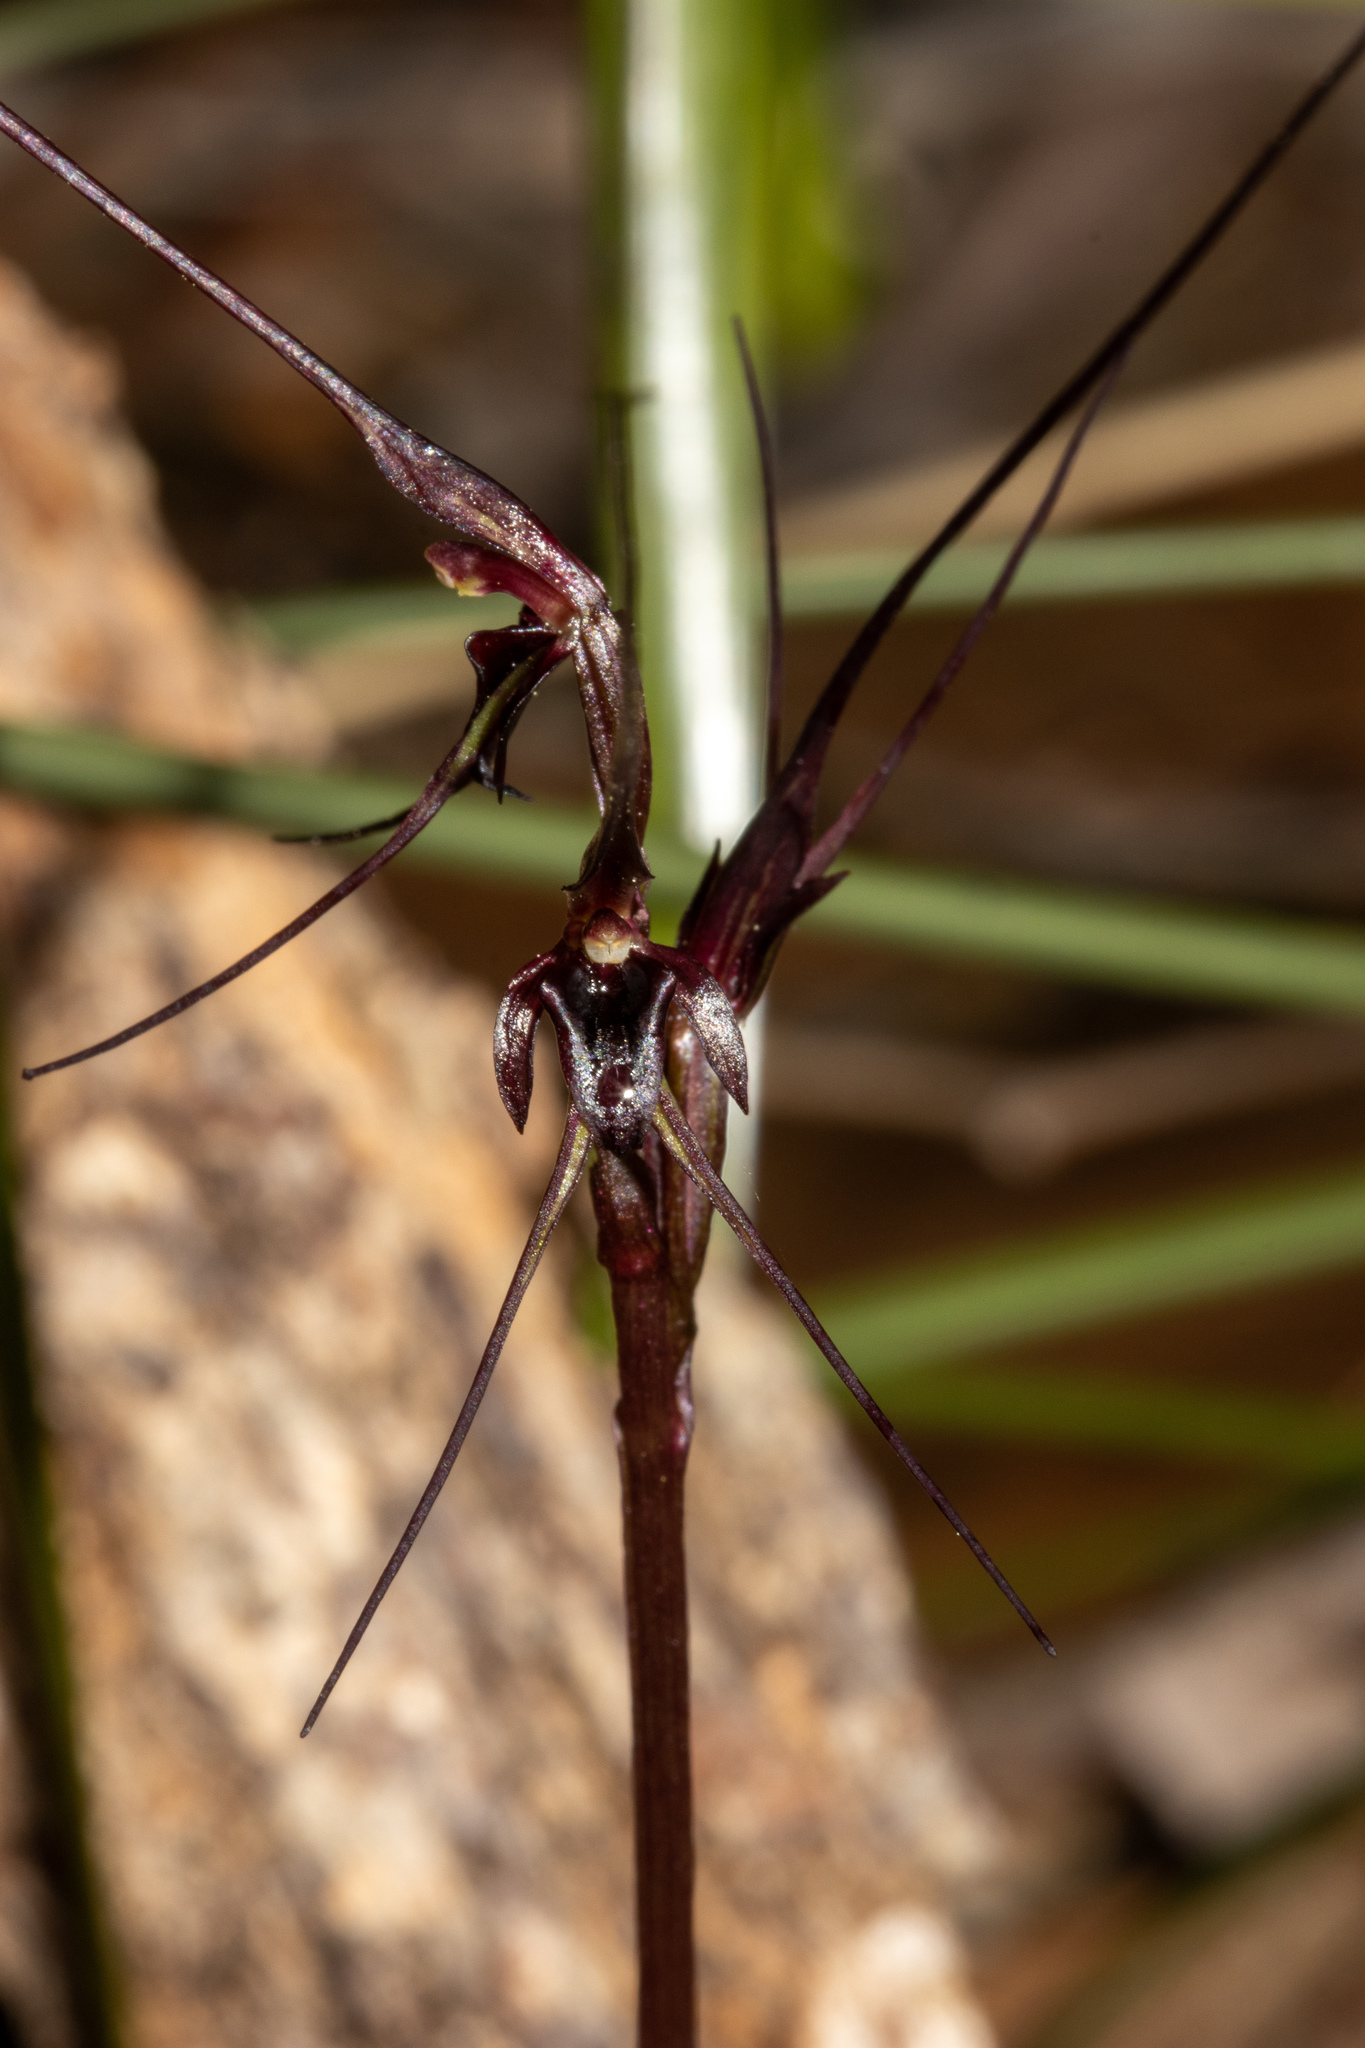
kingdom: Plantae
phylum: Tracheophyta
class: Liliopsida
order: Asparagales
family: Orchidaceae
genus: Acianthus
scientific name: Acianthus caudatus
